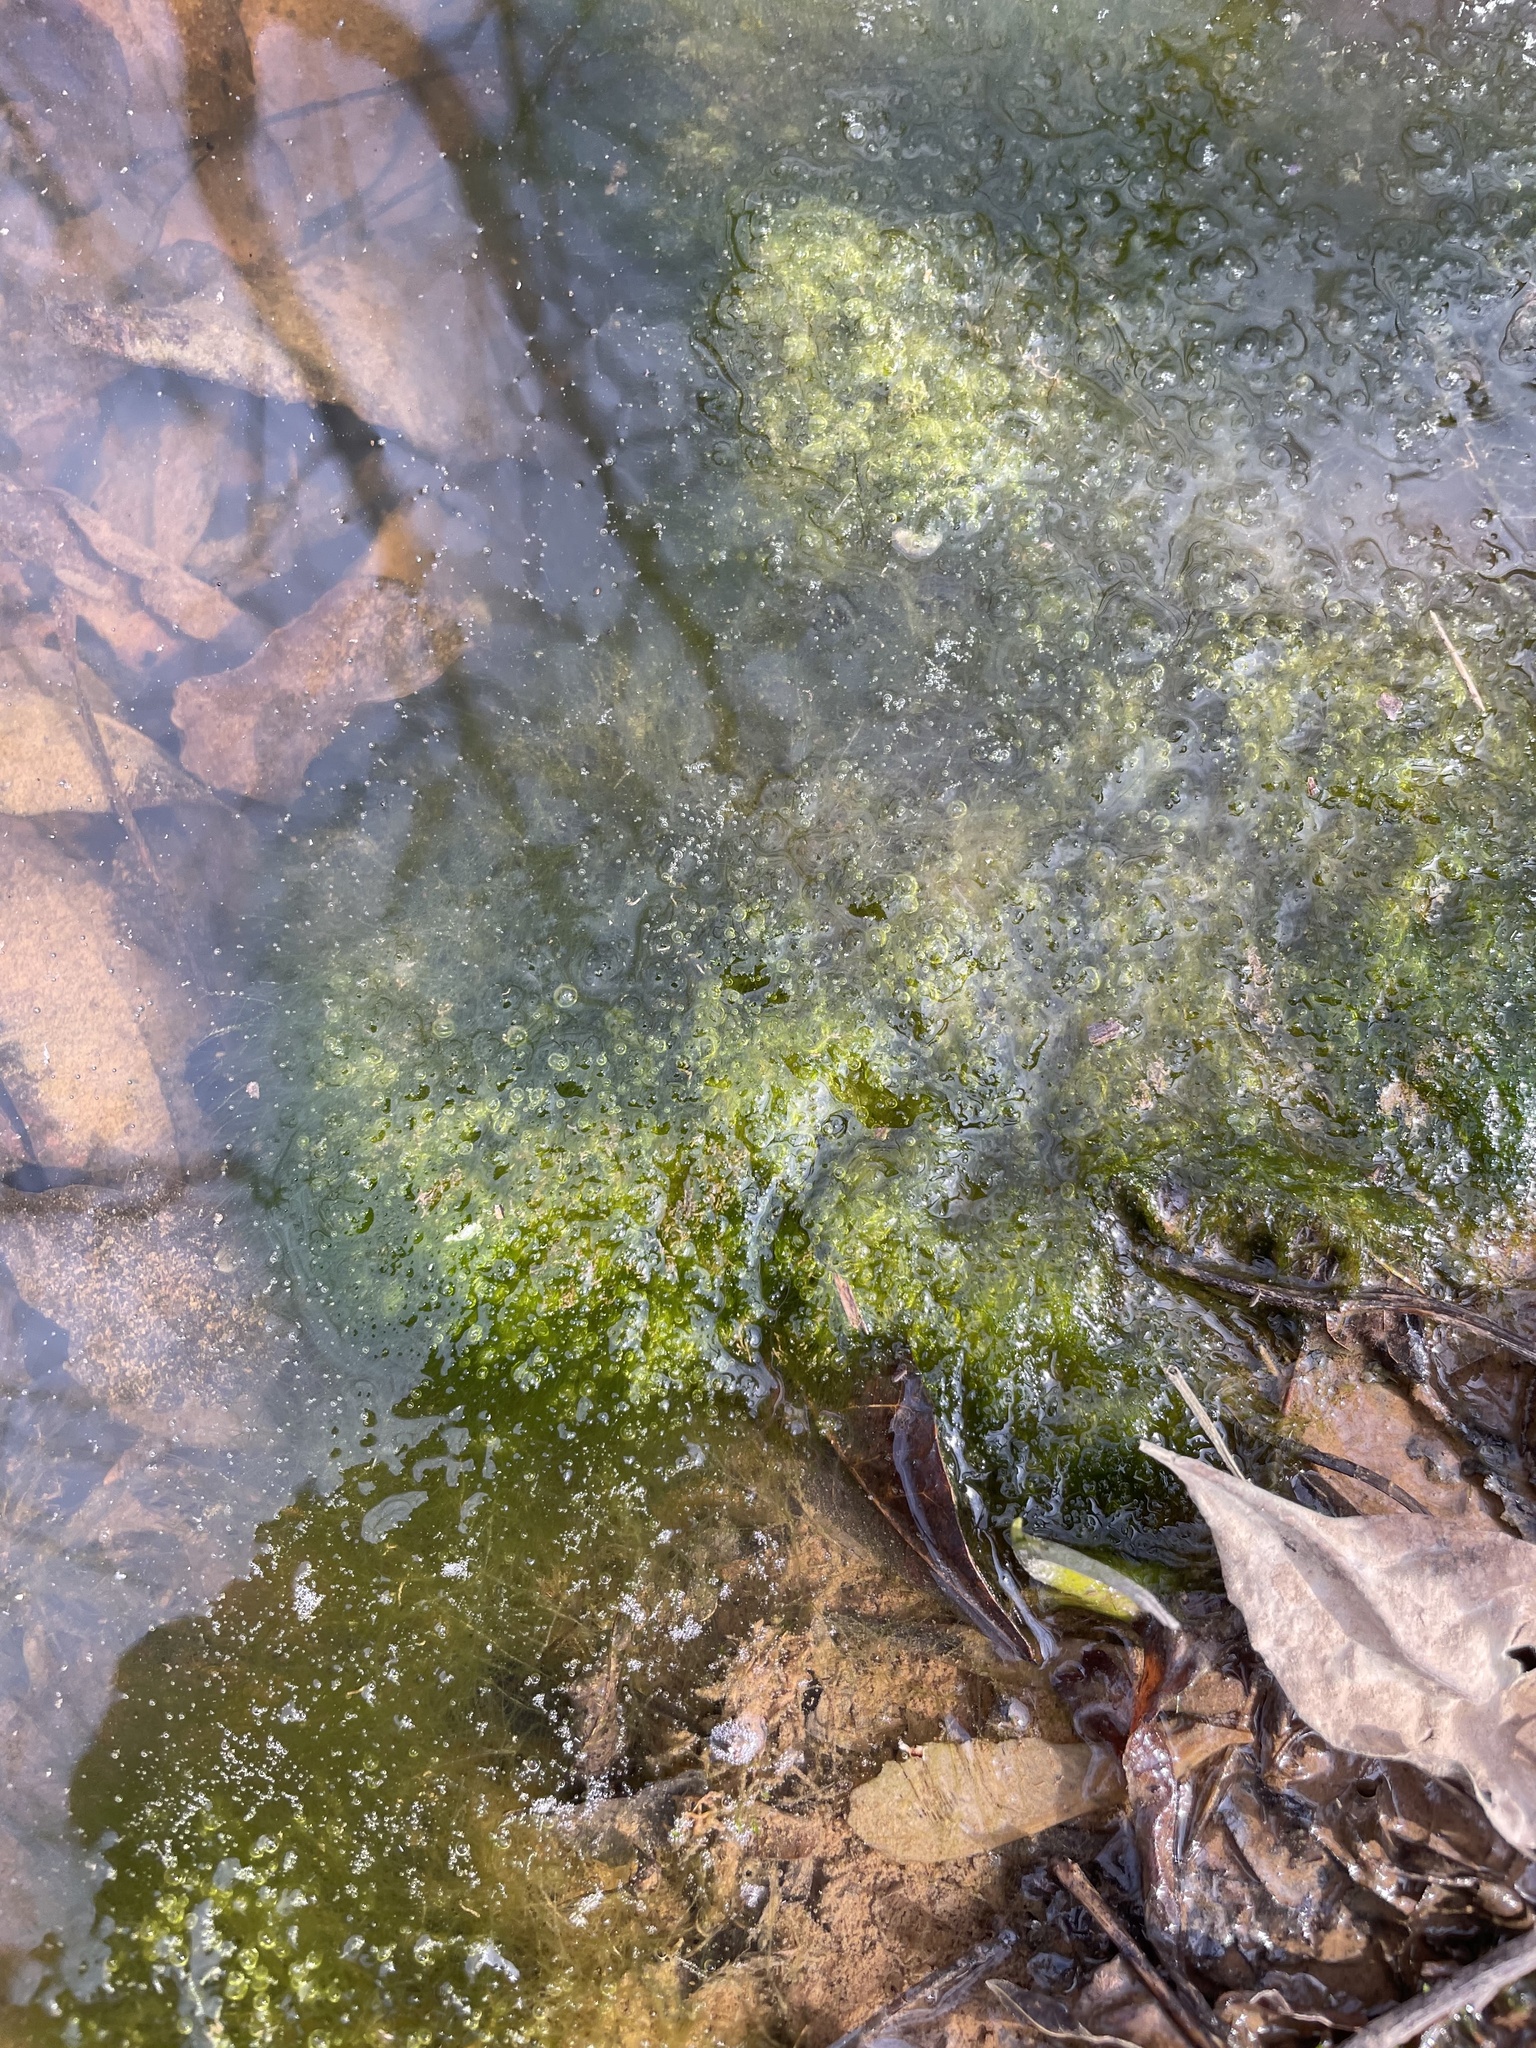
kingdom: Chromista
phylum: Ochrophyta
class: Xanthophyceae
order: Vaucheriales
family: Vaucheriaceae
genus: Vaucheria
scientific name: Vaucheria
